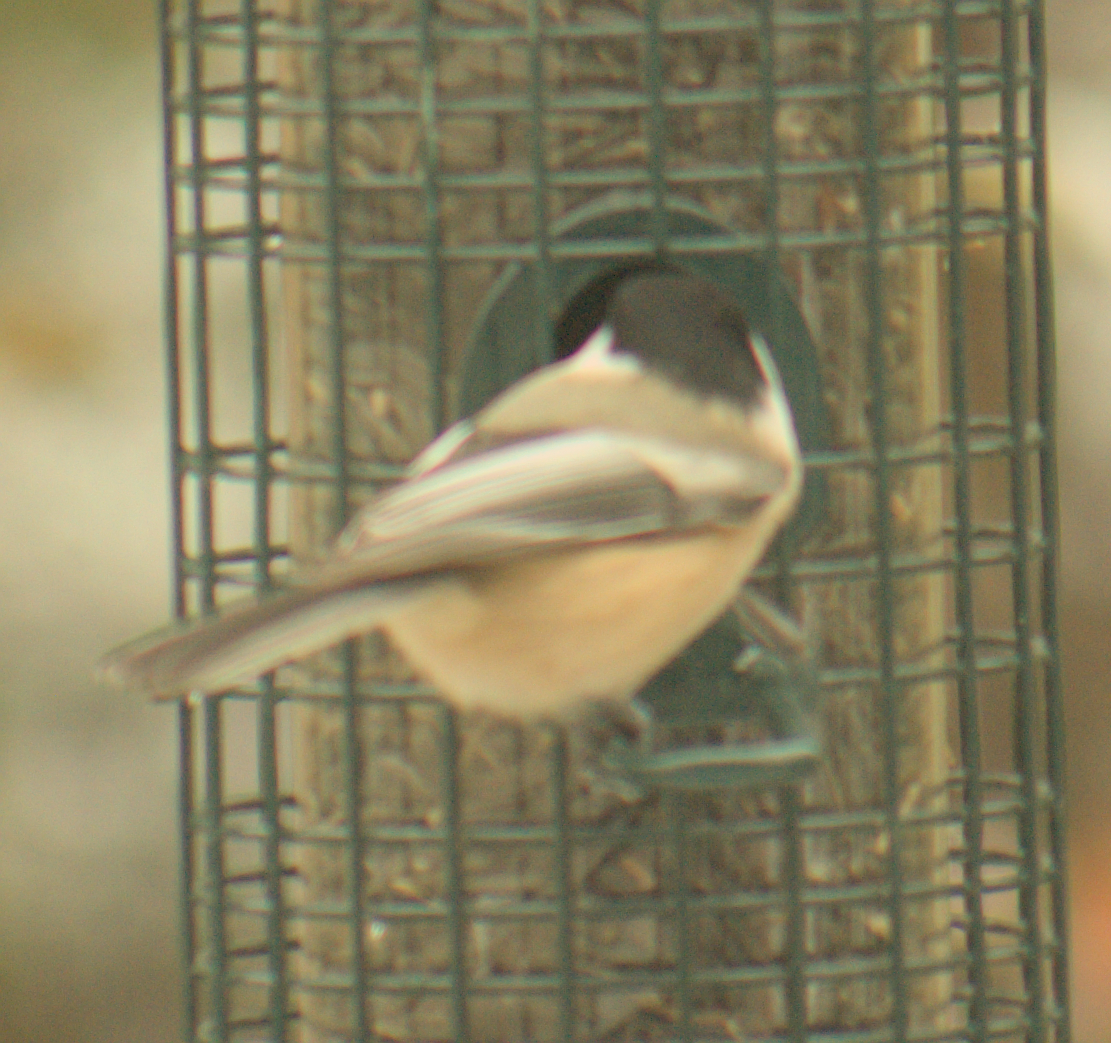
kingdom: Animalia
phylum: Chordata
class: Aves
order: Passeriformes
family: Paridae
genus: Poecile
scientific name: Poecile atricapillus
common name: Black-capped chickadee
